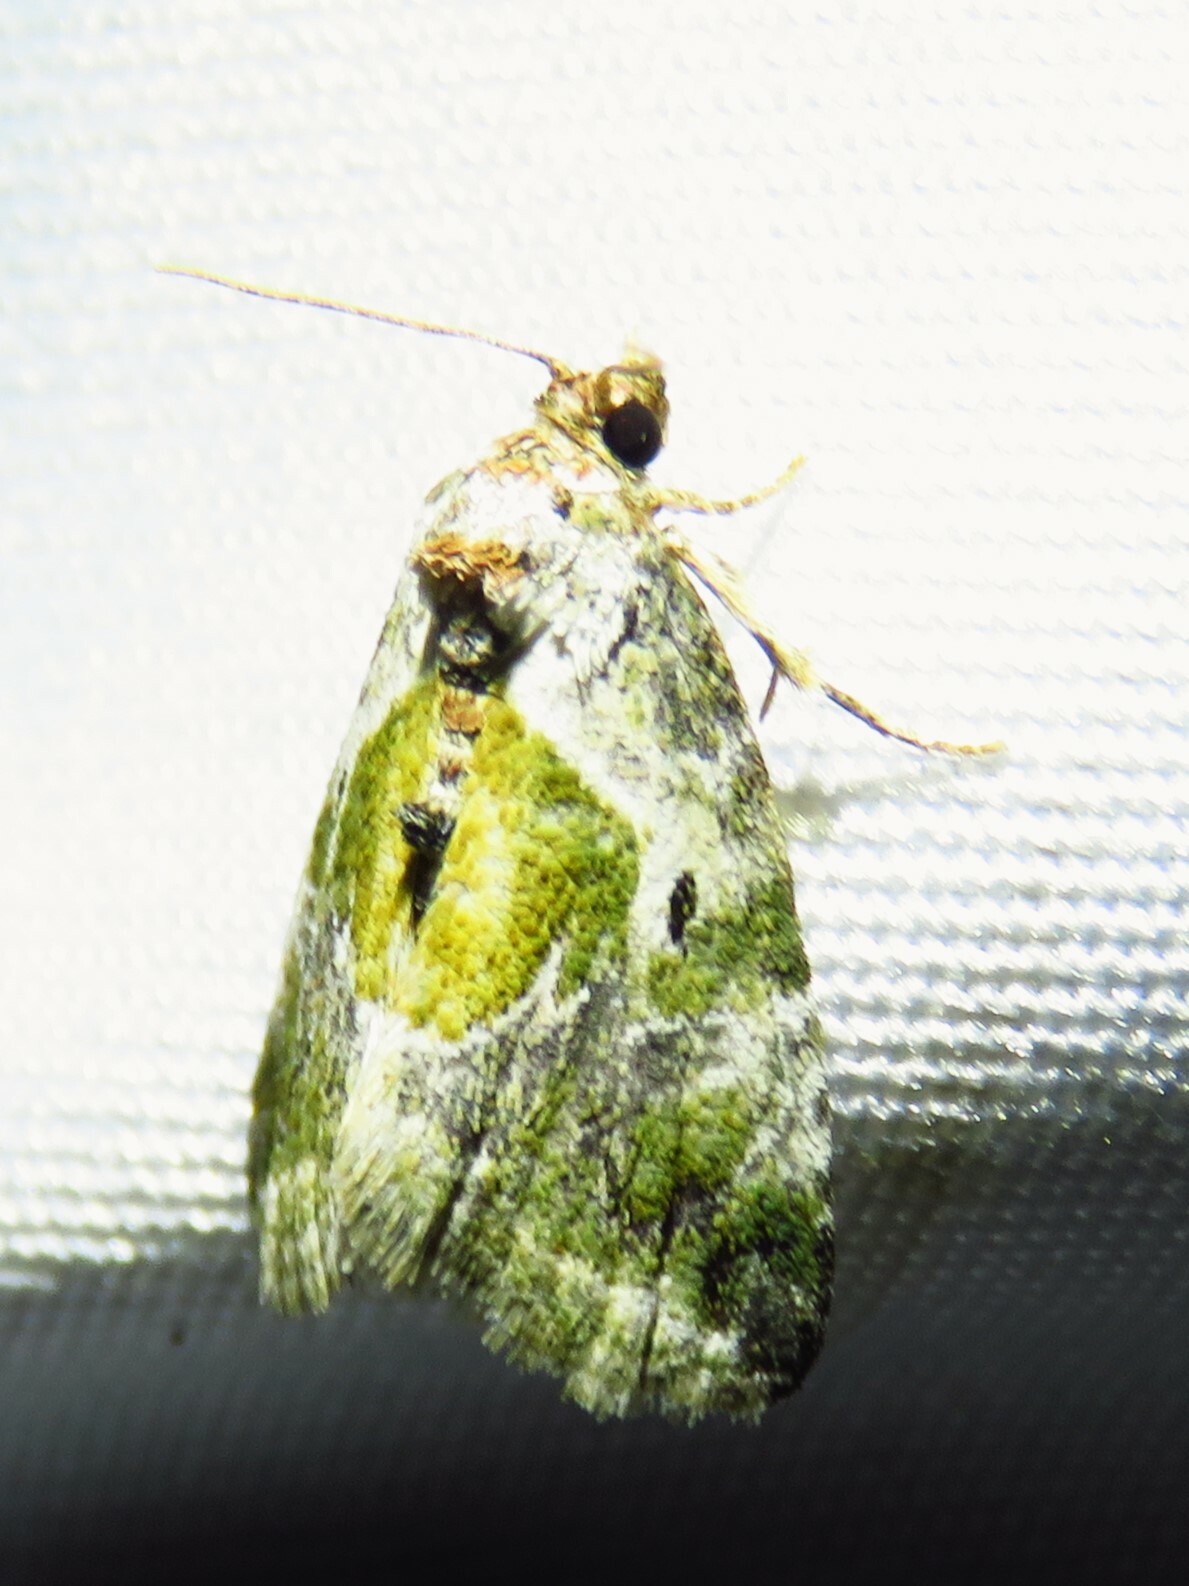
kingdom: Animalia
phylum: Arthropoda
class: Insecta
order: Lepidoptera
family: Noctuidae
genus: Maliattha
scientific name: Maliattha synochitis
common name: Black-dotted glyph
